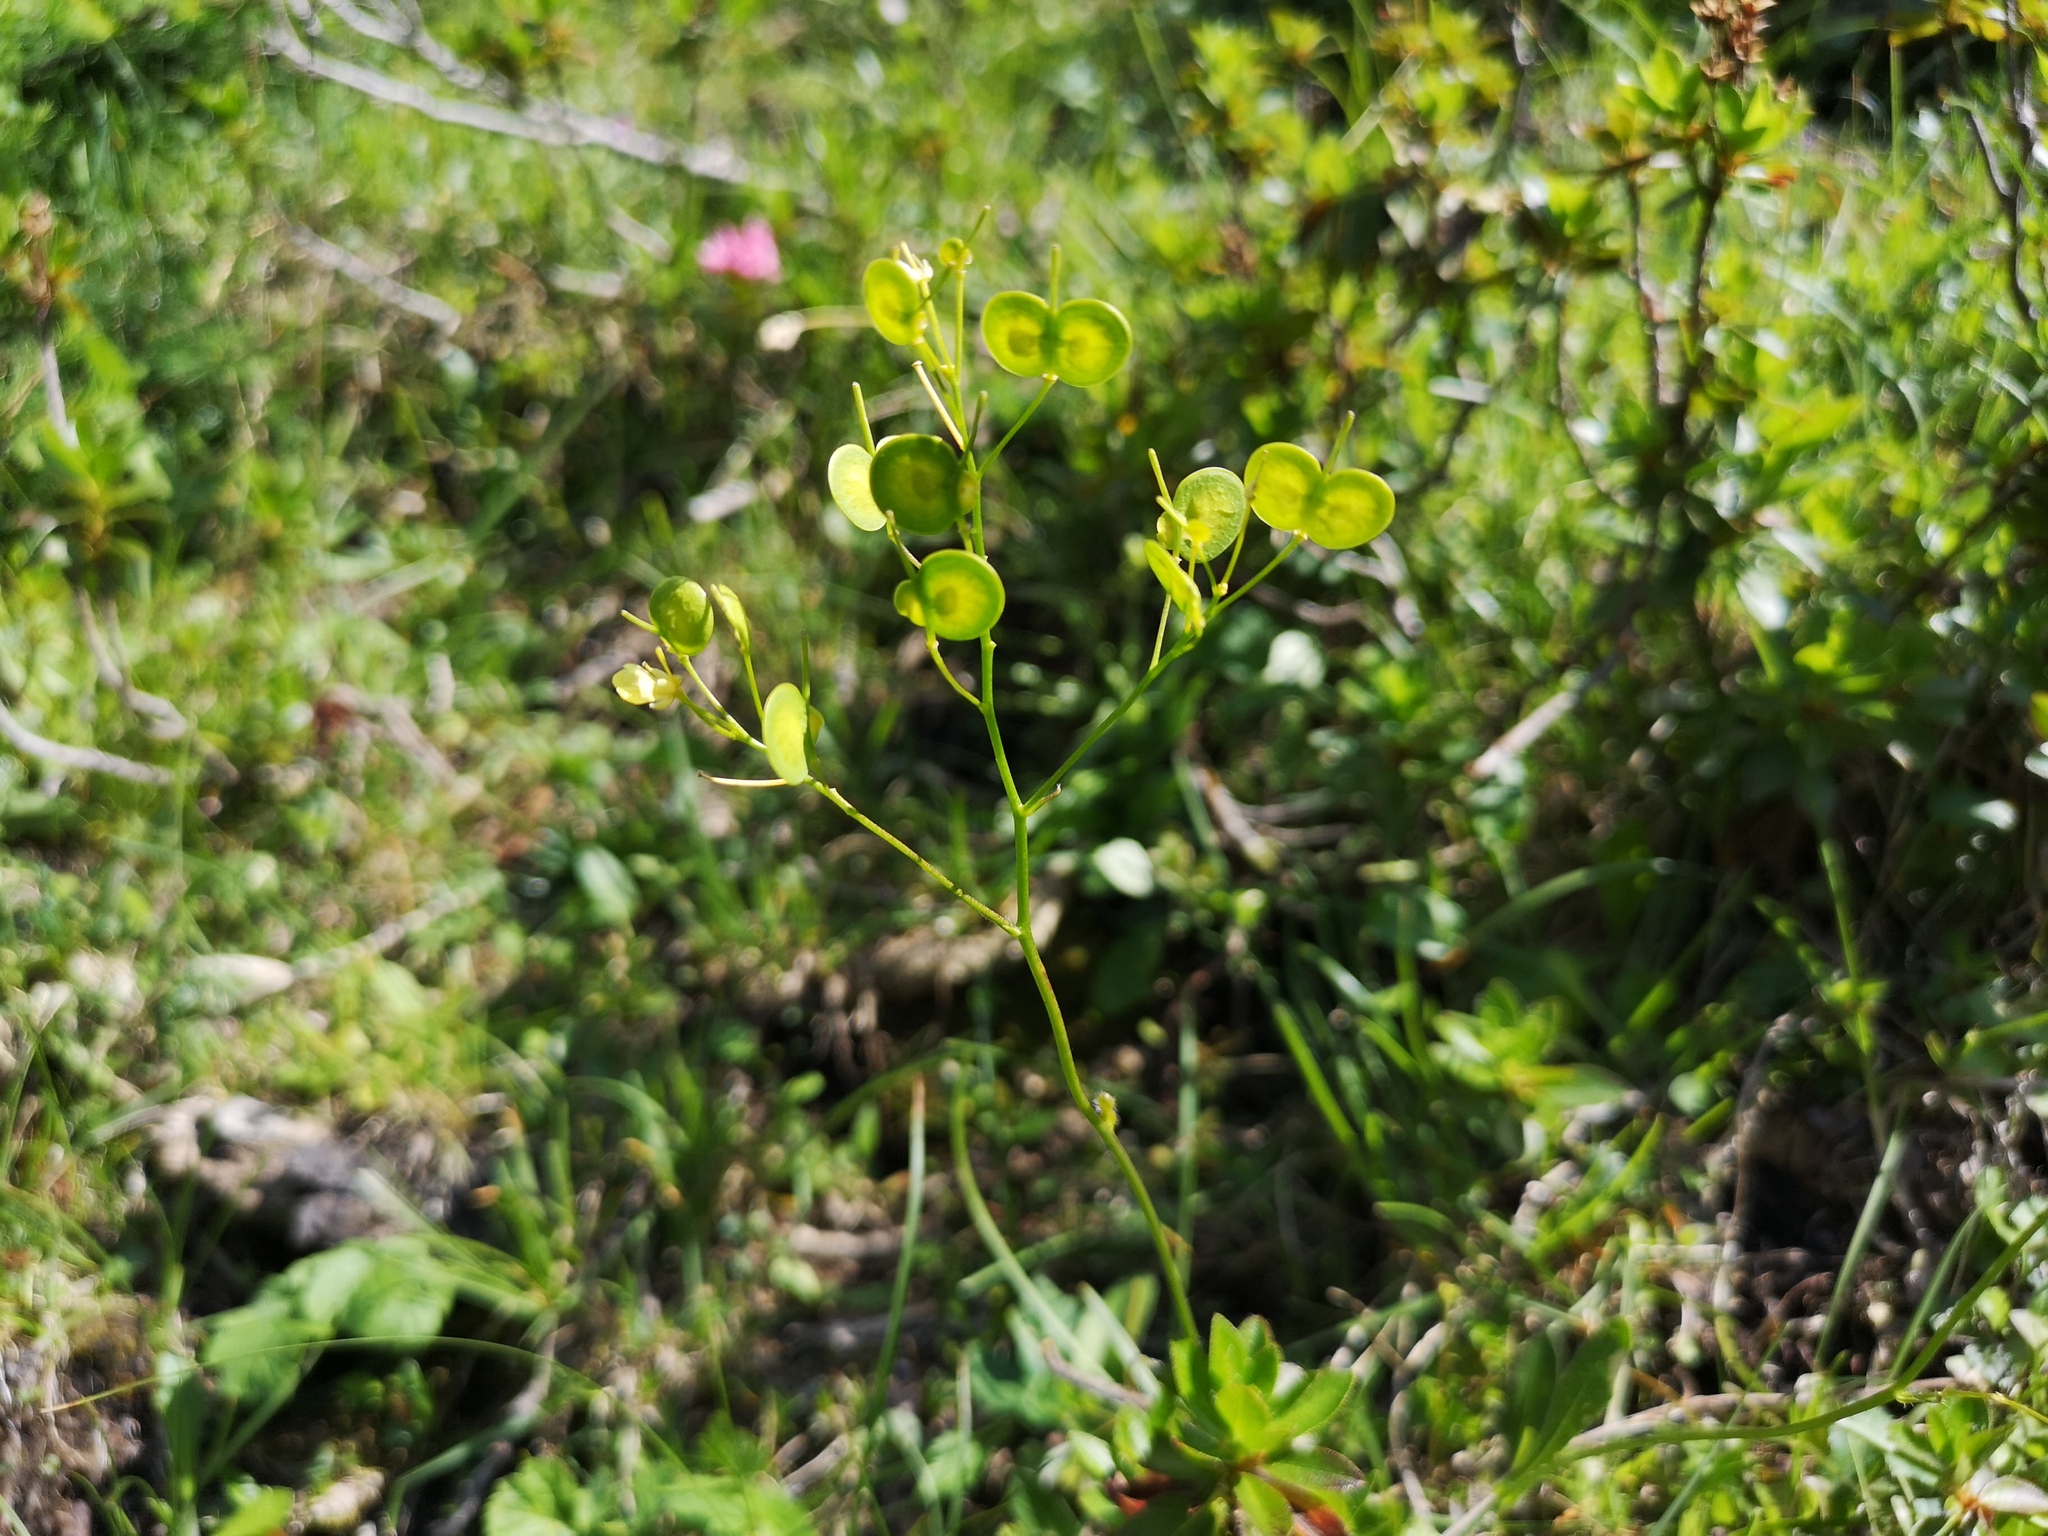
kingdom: Plantae
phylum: Tracheophyta
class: Magnoliopsida
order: Brassicales
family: Brassicaceae
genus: Biscutella
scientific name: Biscutella laevigata
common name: Buckler mustard
